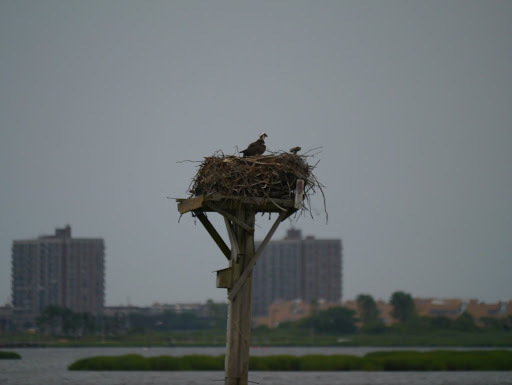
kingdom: Animalia
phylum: Chordata
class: Aves
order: Accipitriformes
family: Pandionidae
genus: Pandion
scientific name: Pandion haliaetus
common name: Osprey
